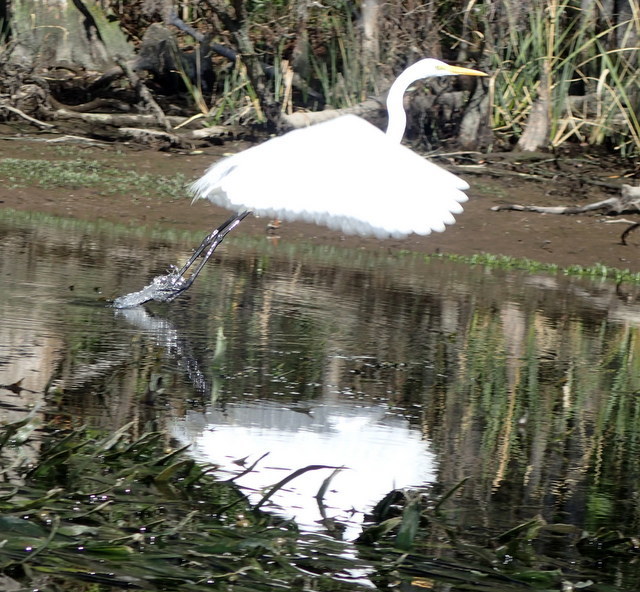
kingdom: Animalia
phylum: Chordata
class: Aves
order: Pelecaniformes
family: Ardeidae
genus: Ardea
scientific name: Ardea alba
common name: Great egret
